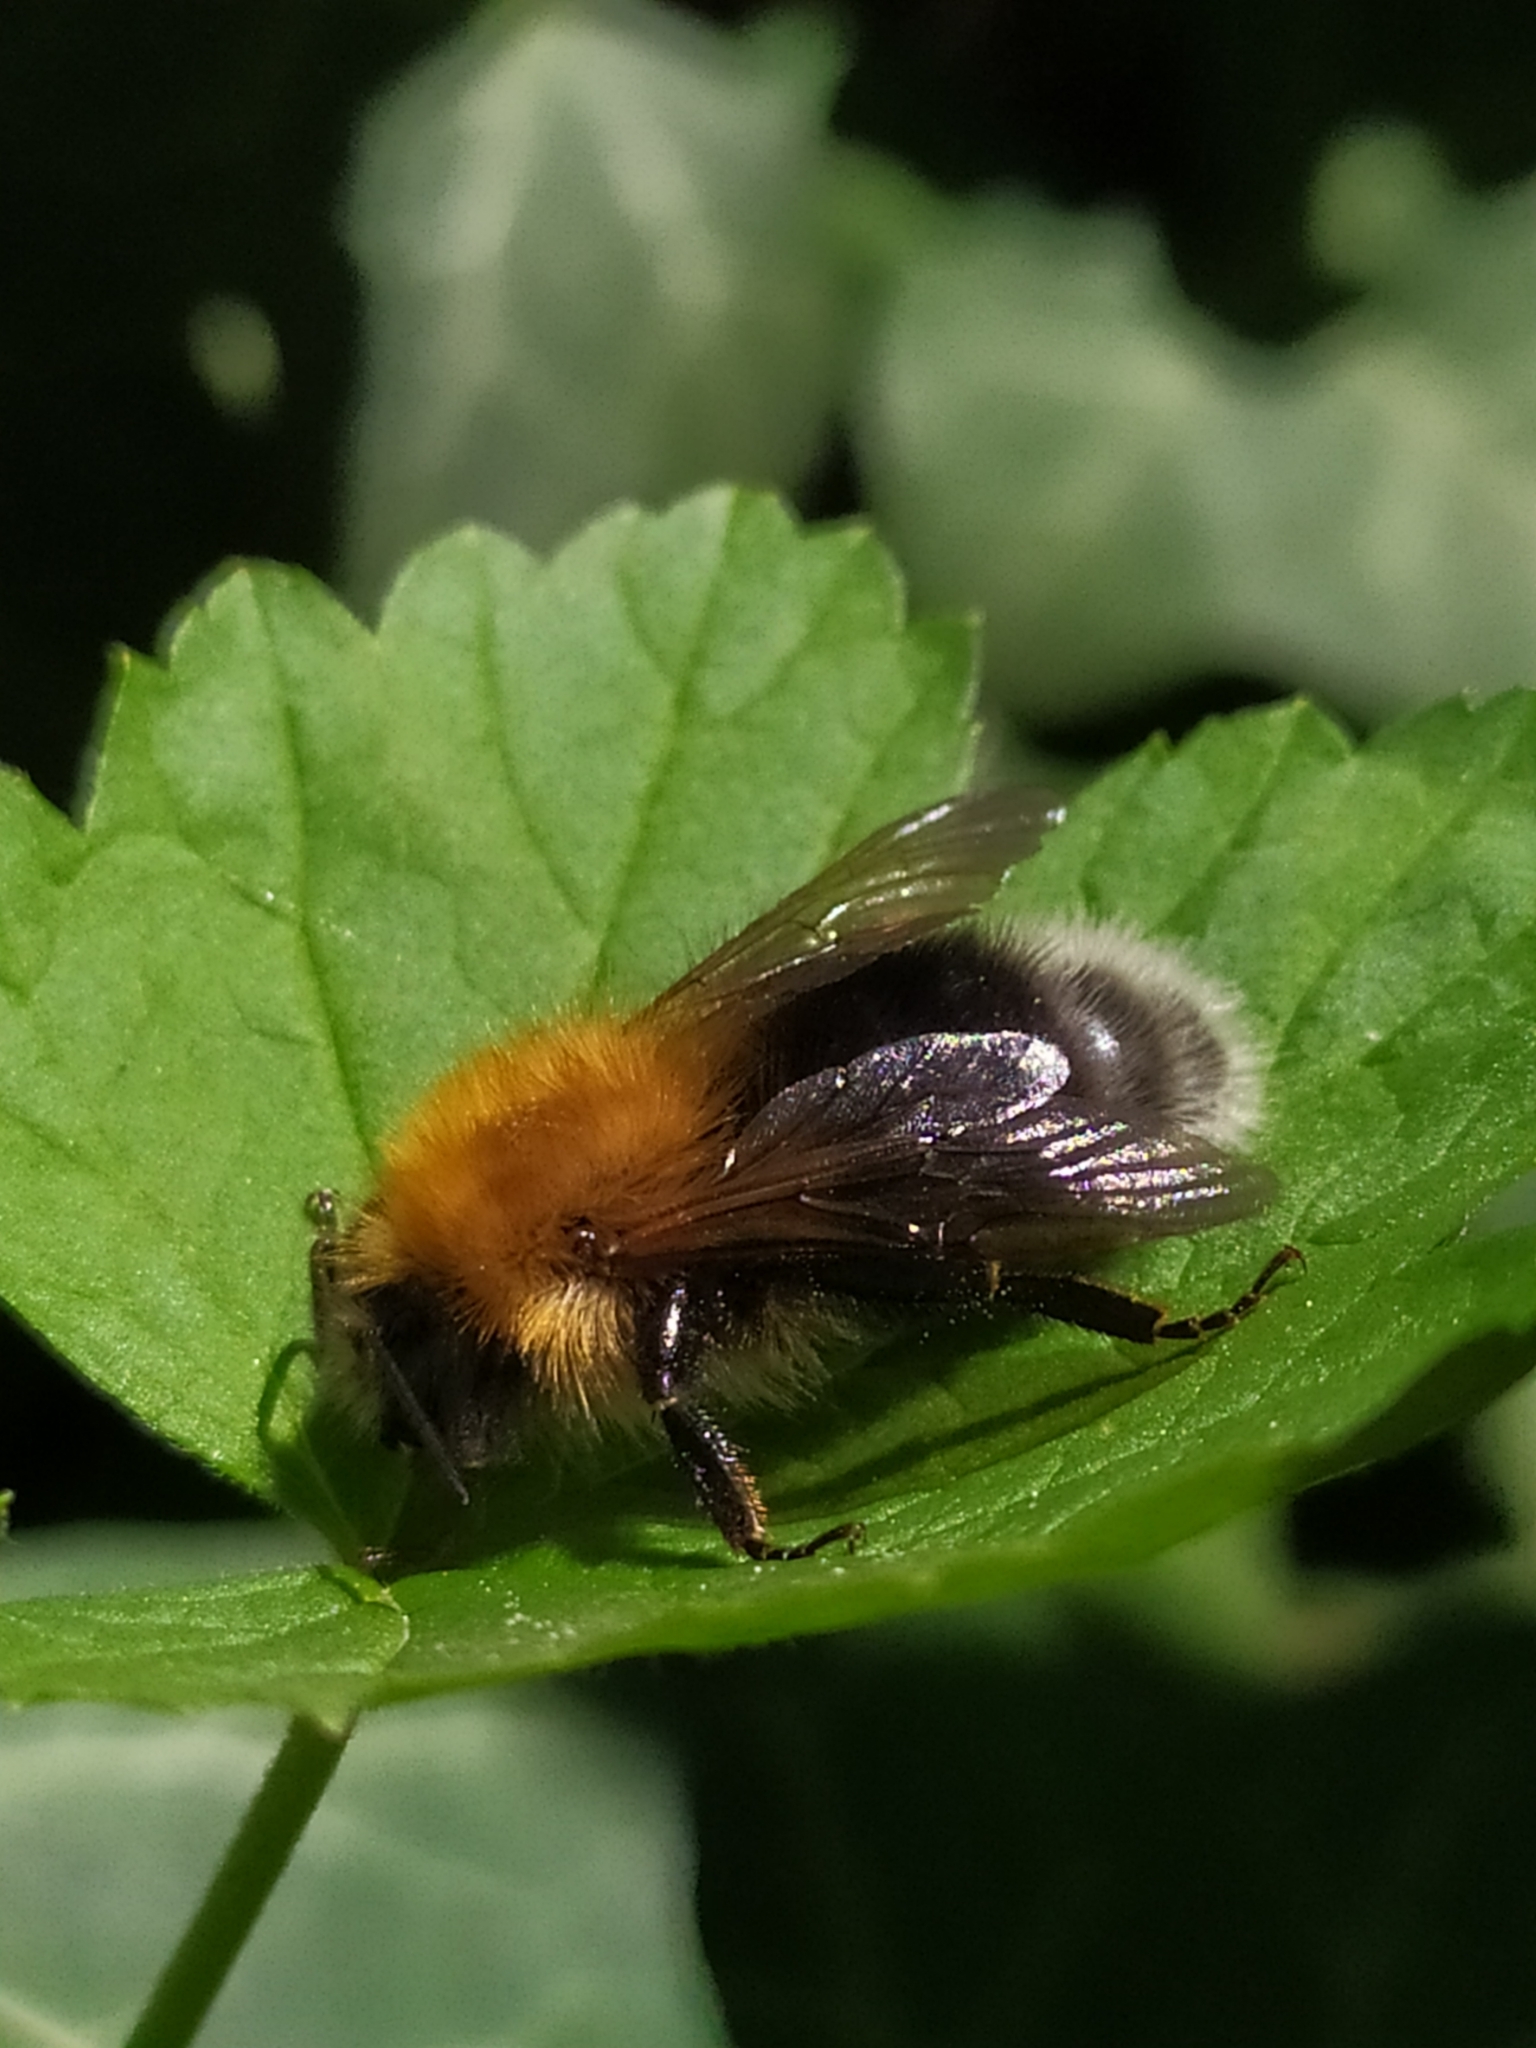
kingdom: Animalia
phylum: Arthropoda
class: Insecta
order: Hymenoptera
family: Apidae
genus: Bombus
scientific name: Bombus hypnorum
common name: New garden bumblebee
